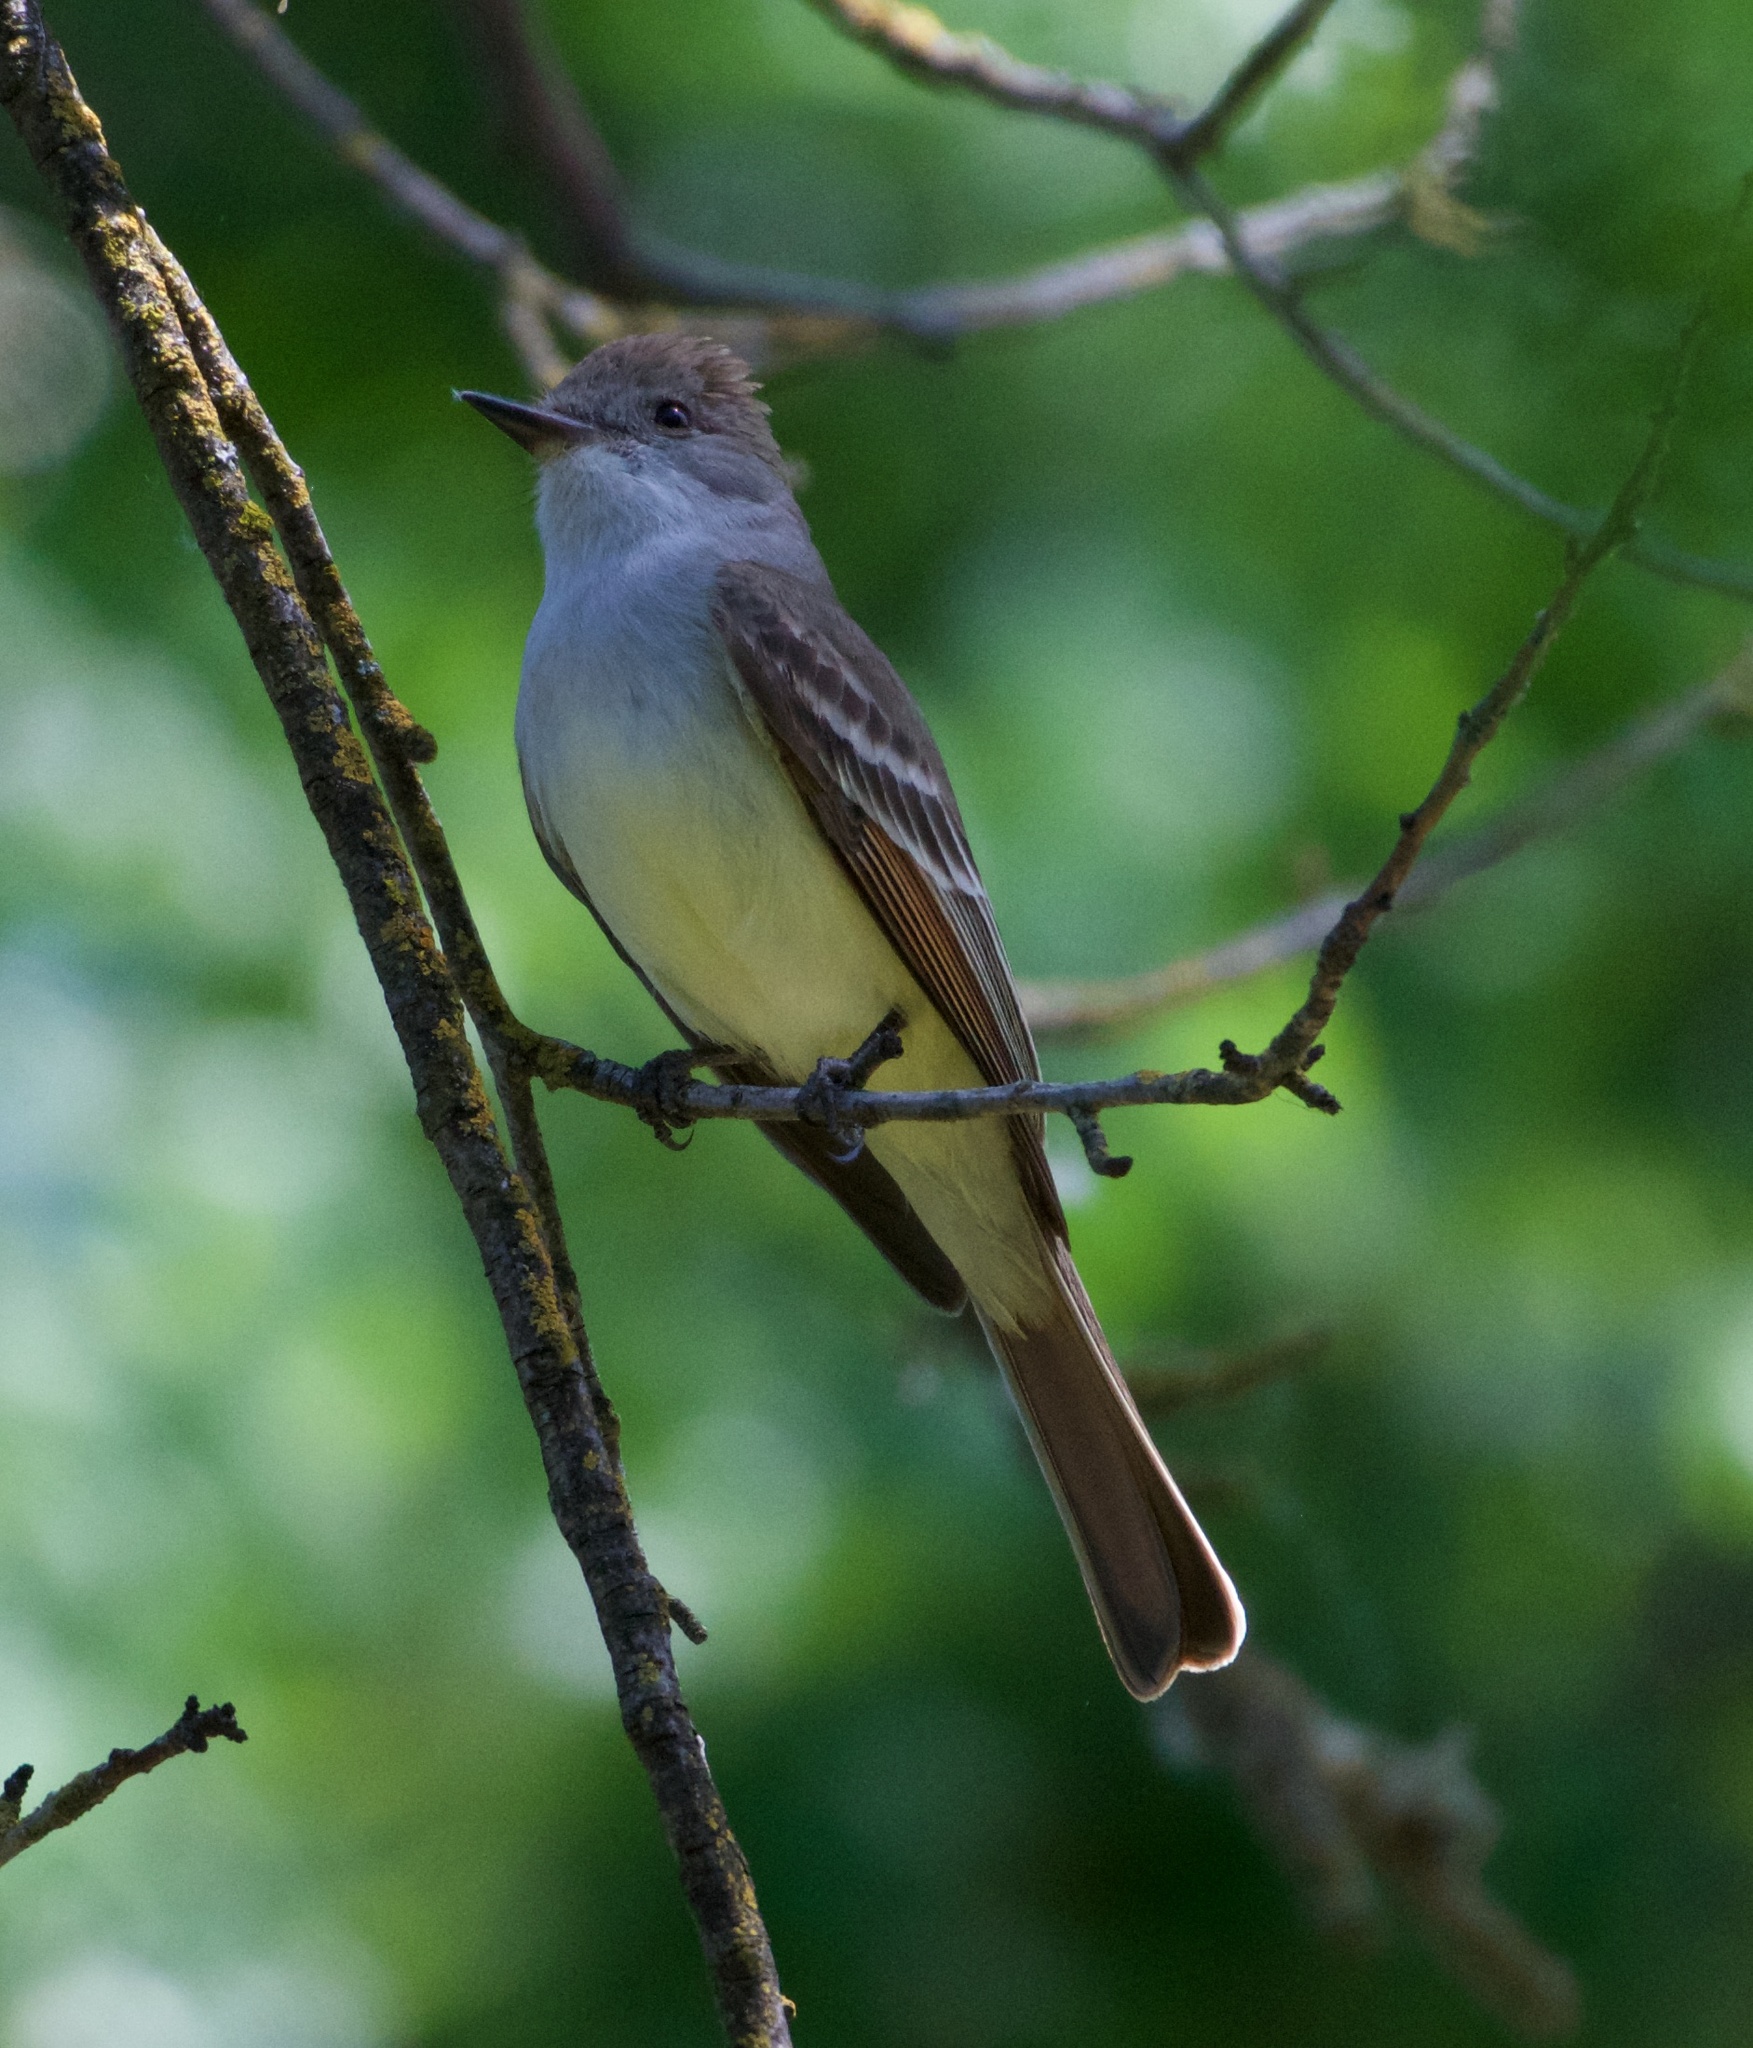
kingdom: Animalia
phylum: Chordata
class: Aves
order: Passeriformes
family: Tyrannidae
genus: Myiarchus
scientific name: Myiarchus cinerascens
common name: Ash-throated flycatcher
